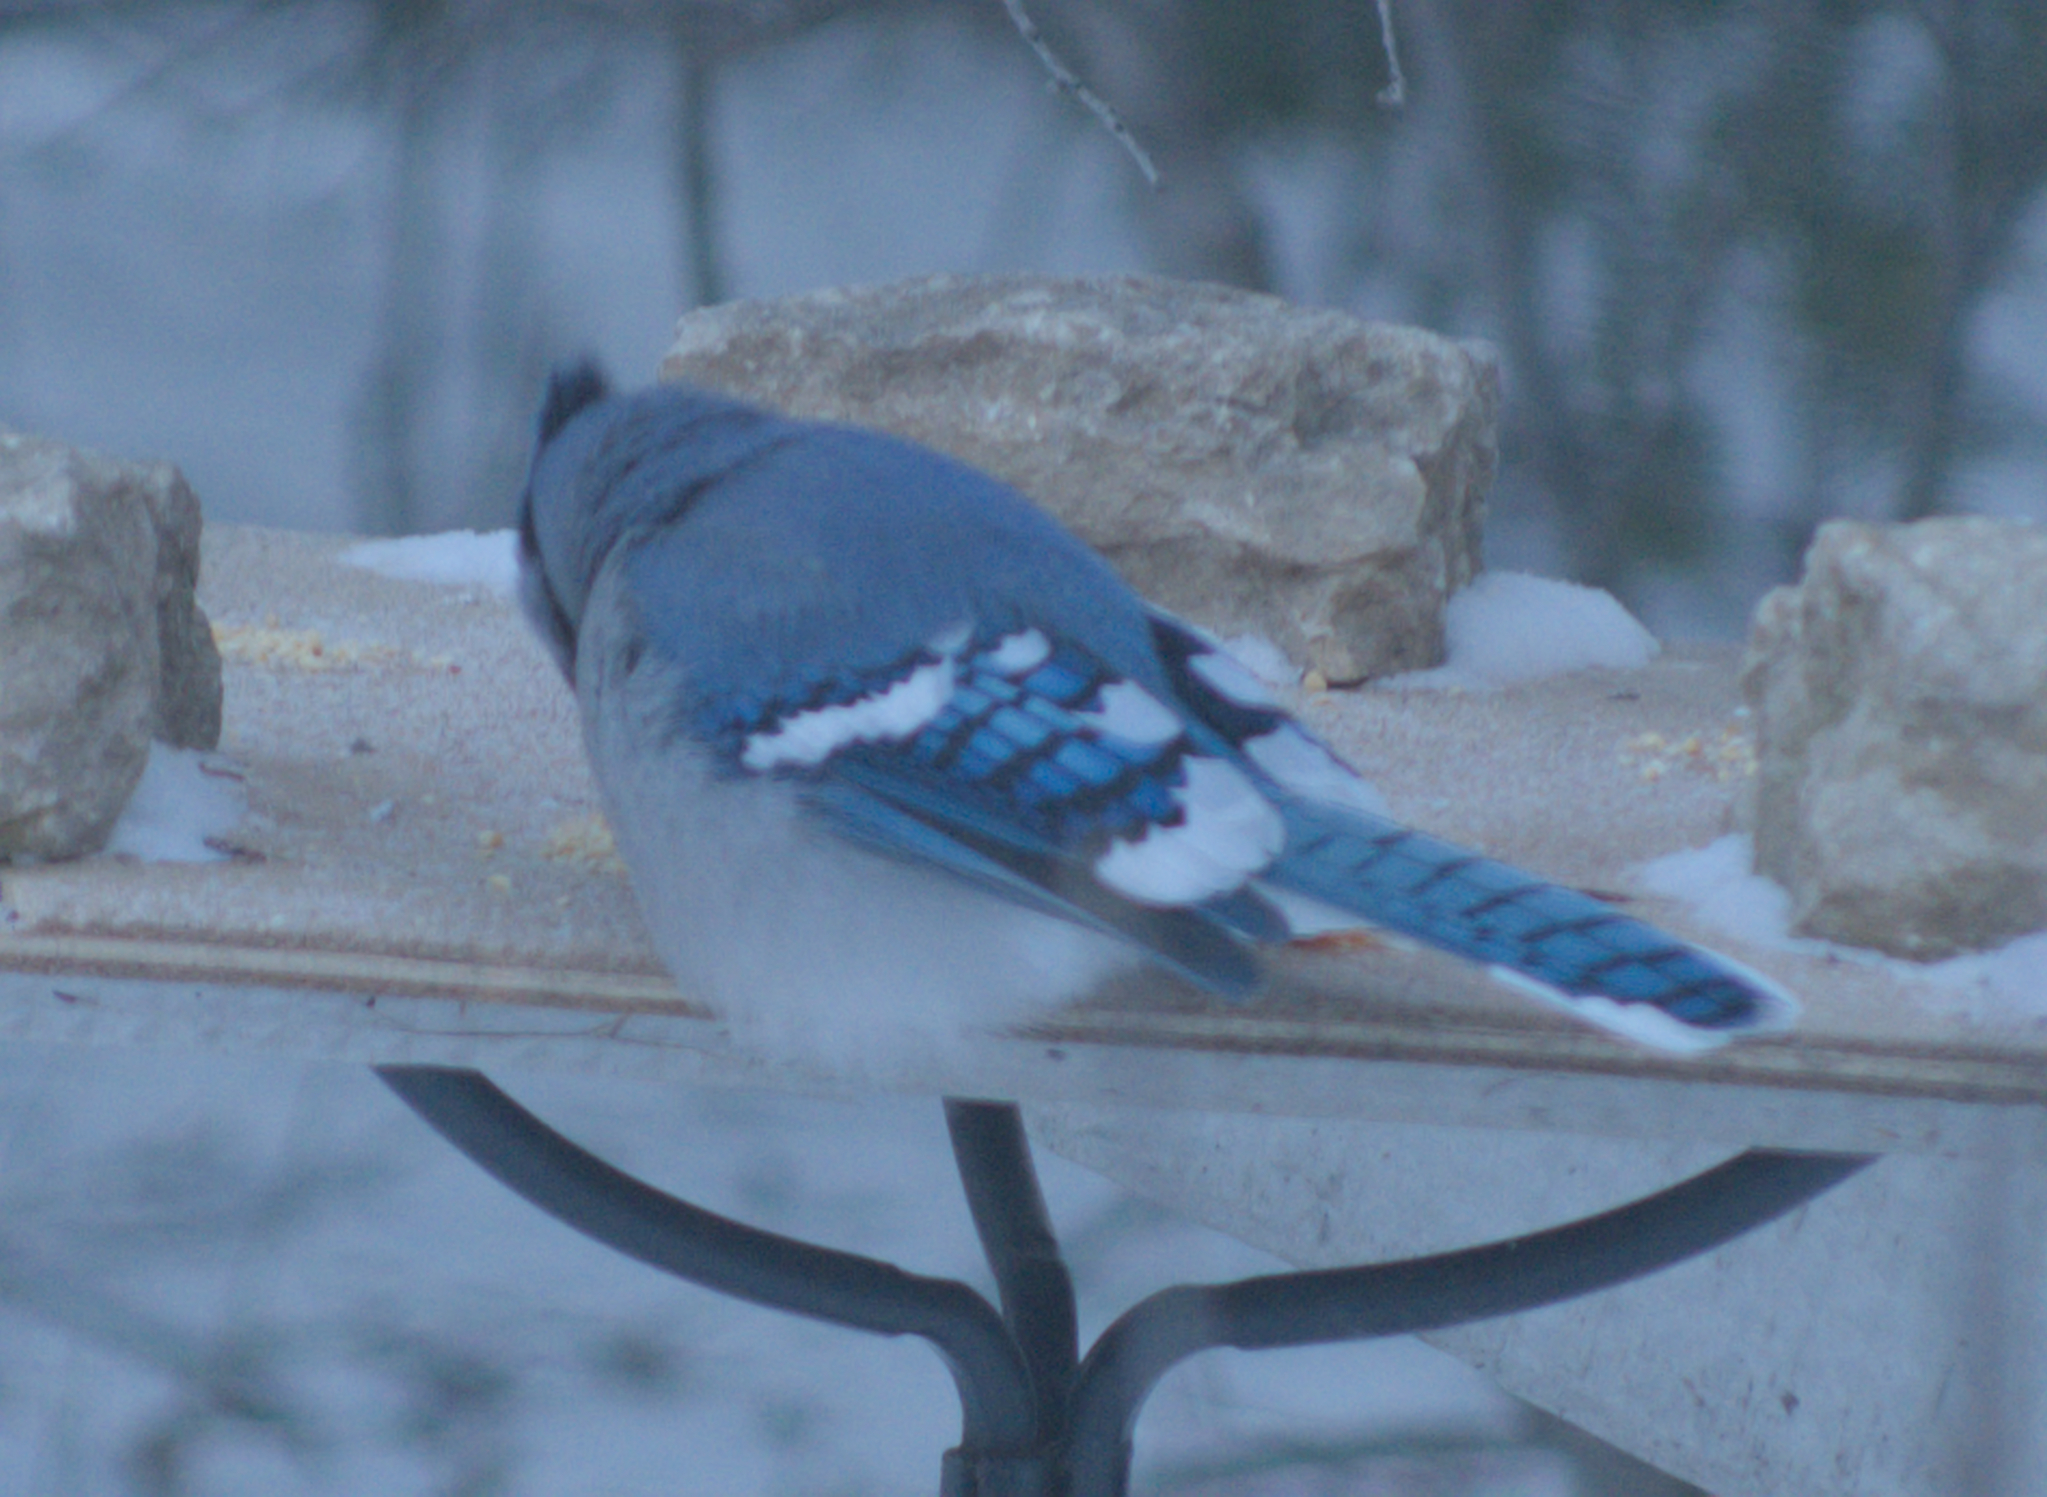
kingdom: Animalia
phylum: Chordata
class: Aves
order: Passeriformes
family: Corvidae
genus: Cyanocitta
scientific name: Cyanocitta cristata
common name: Blue jay
